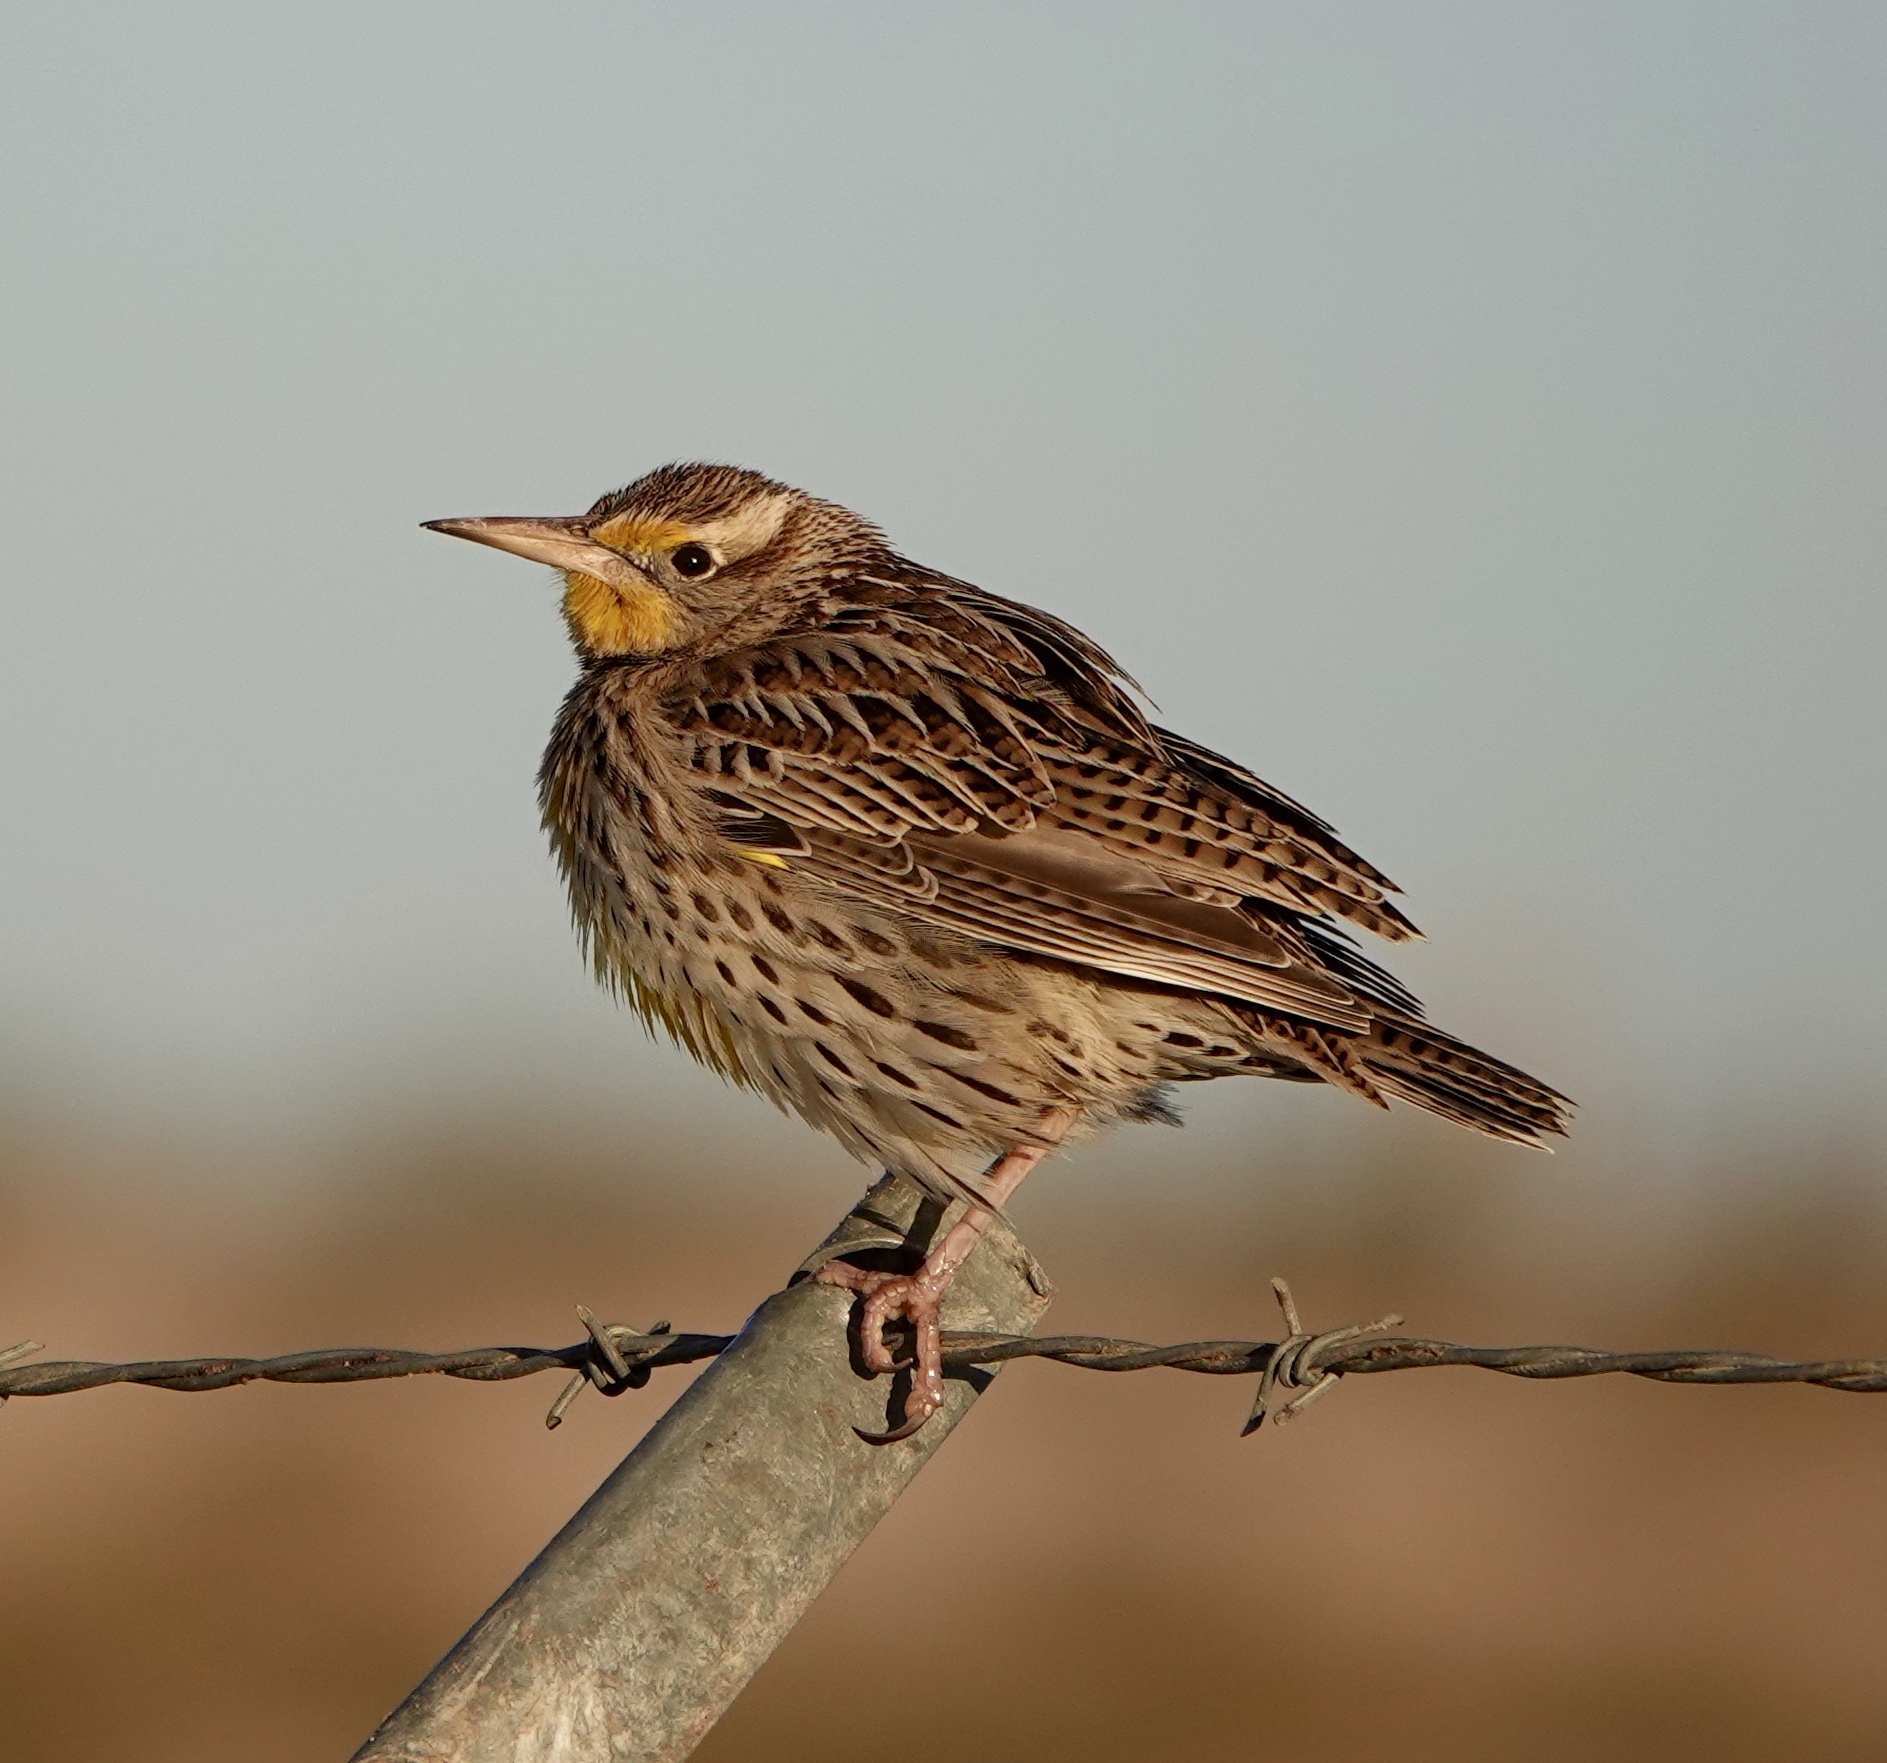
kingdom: Animalia
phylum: Chordata
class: Aves
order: Passeriformes
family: Icteridae
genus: Sturnella
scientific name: Sturnella neglecta
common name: Western meadowlark
